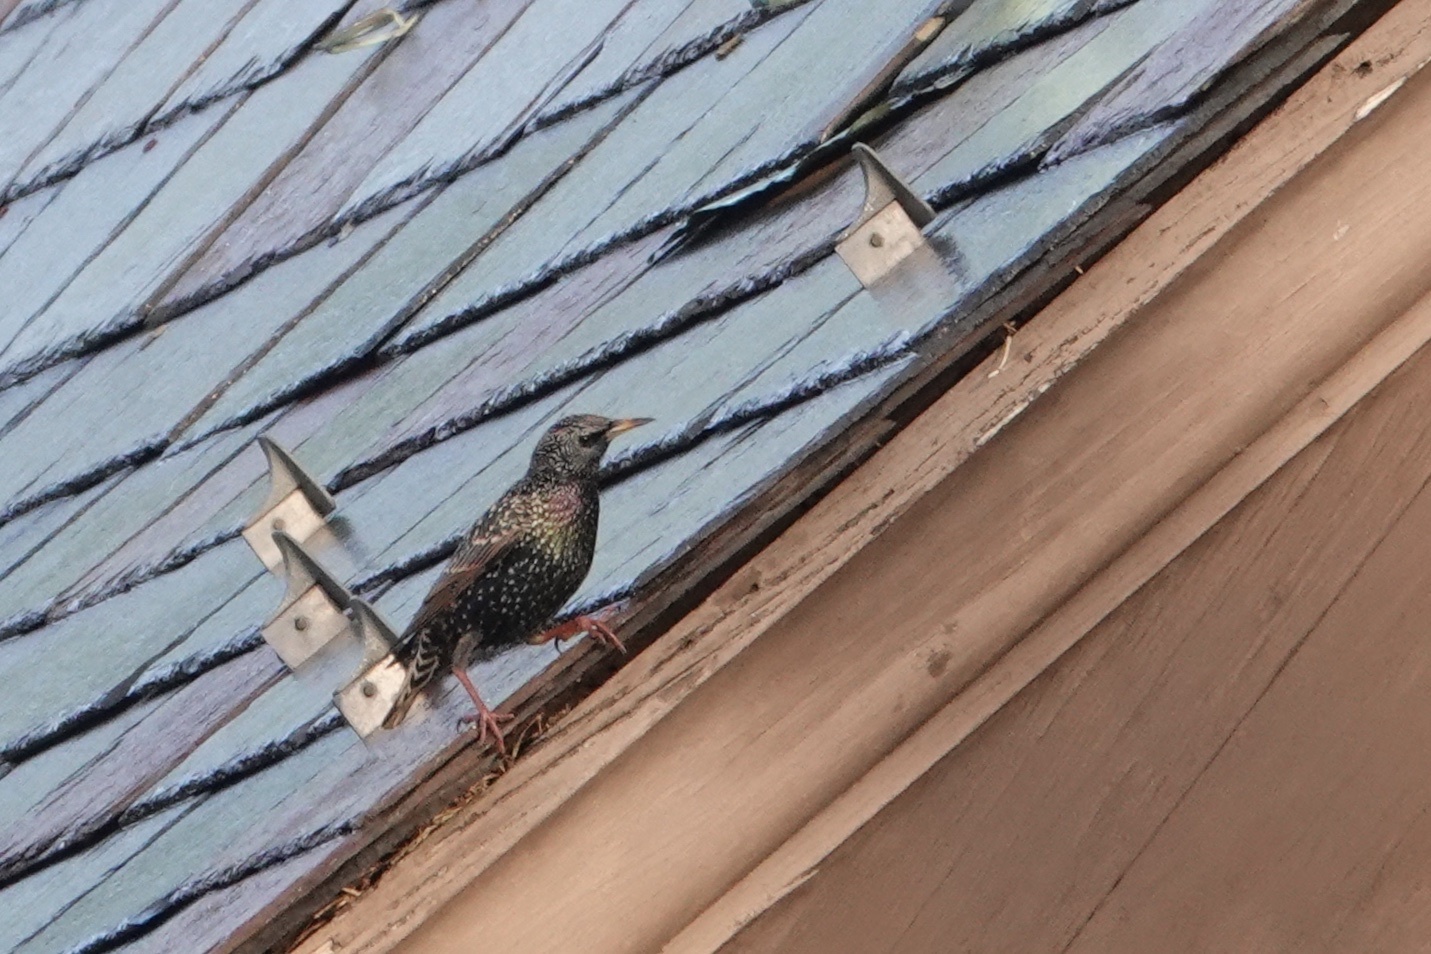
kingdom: Animalia
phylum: Chordata
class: Aves
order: Passeriformes
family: Sturnidae
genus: Sturnus
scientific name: Sturnus vulgaris
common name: Common starling
